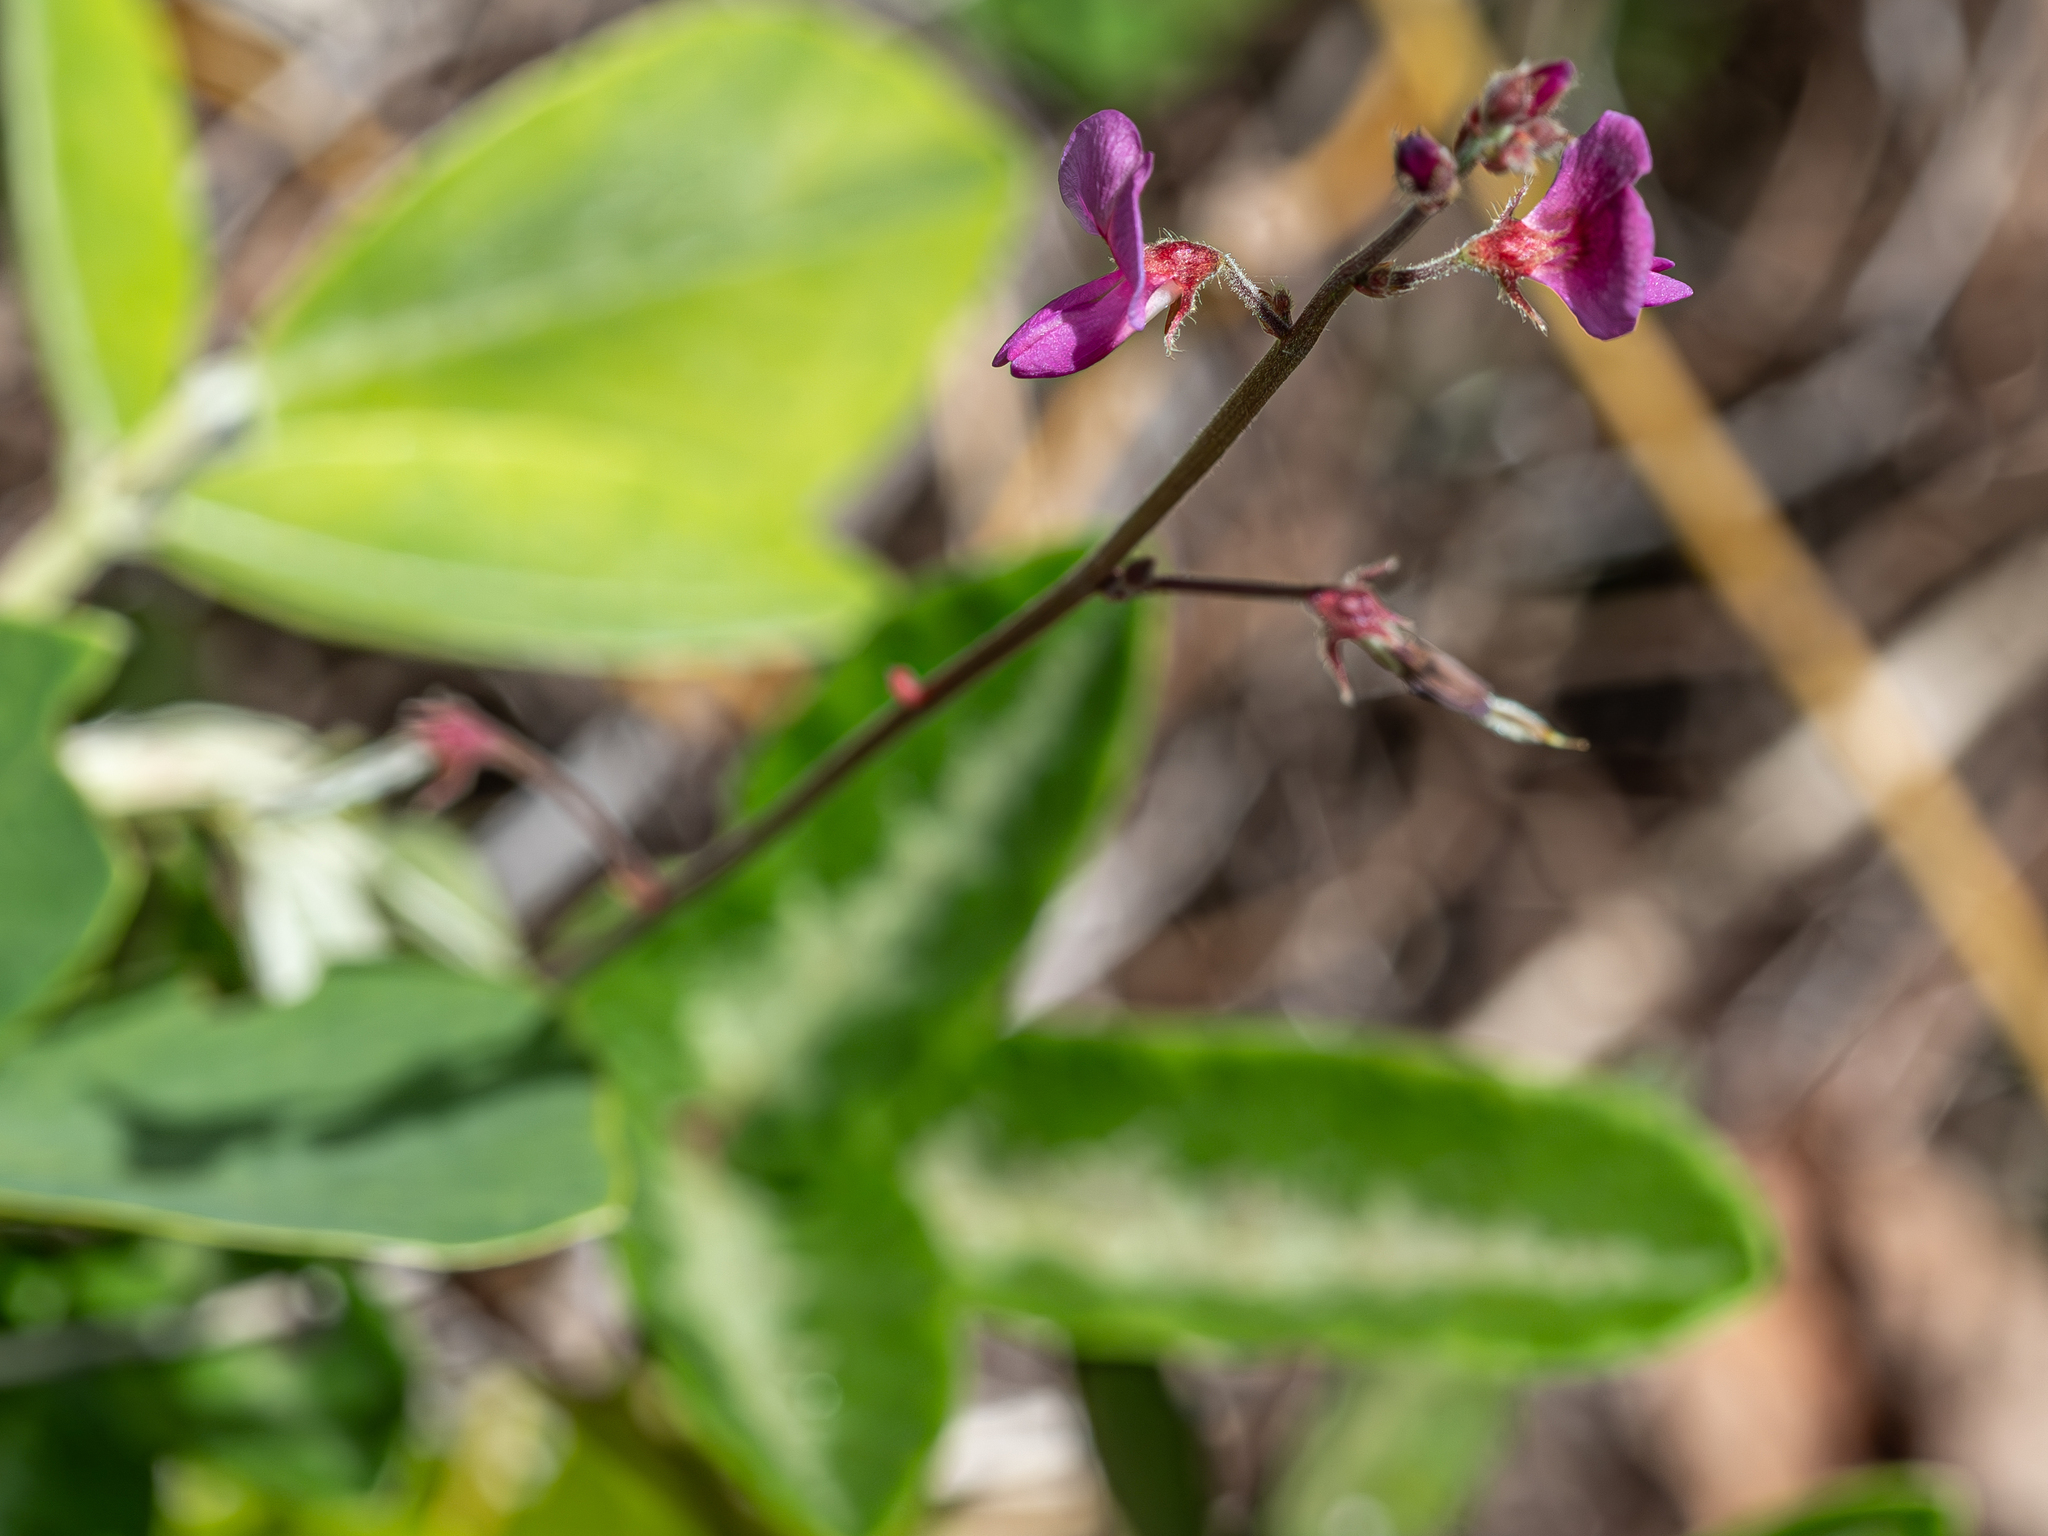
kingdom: Plantae
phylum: Tracheophyta
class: Magnoliopsida
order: Fabales
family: Fabaceae
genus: Desmodium
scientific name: Desmodium incanum
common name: Tickclover
